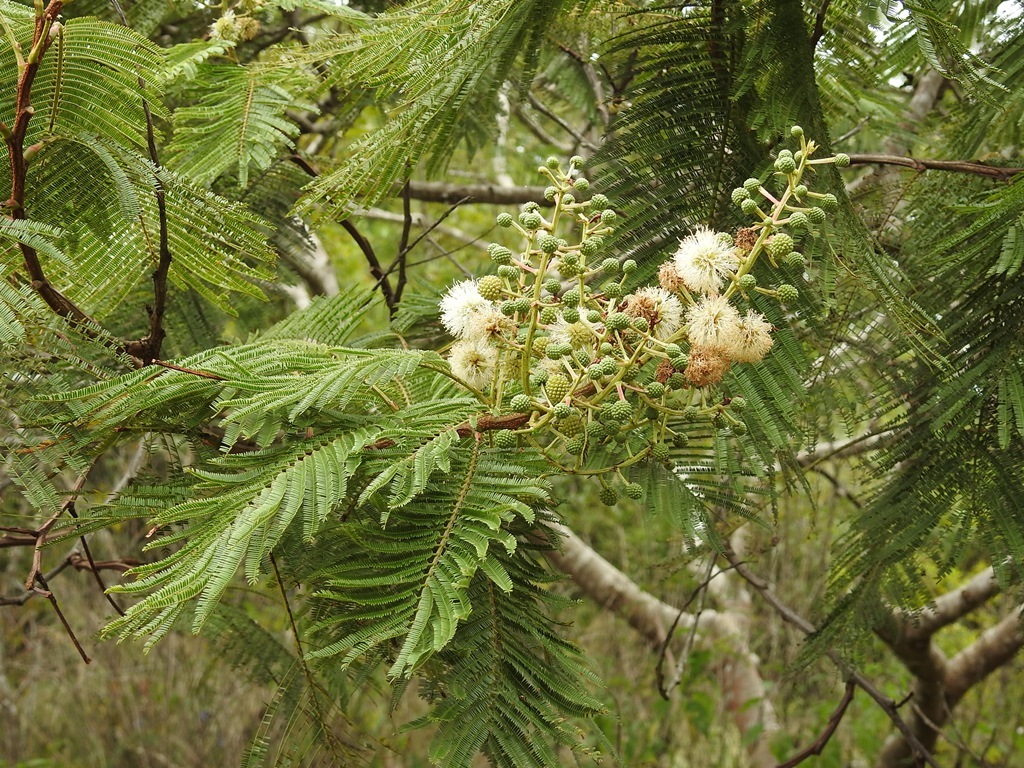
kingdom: Plantae
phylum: Tracheophyta
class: Magnoliopsida
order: Fabales
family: Fabaceae
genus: Lysiloma
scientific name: Lysiloma auritum
